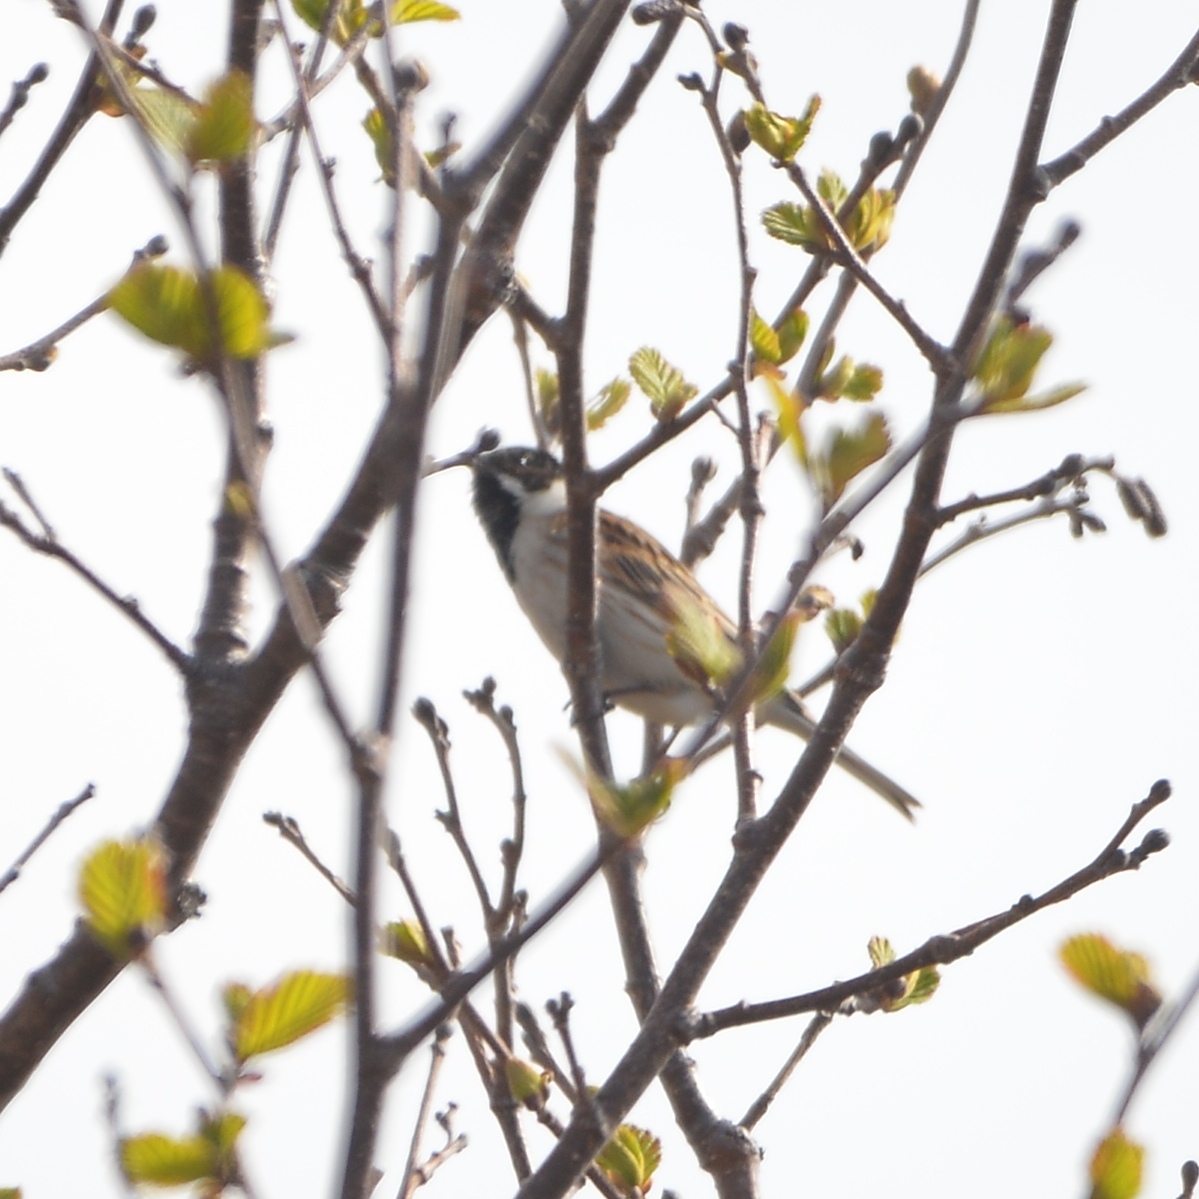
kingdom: Animalia
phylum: Chordata
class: Aves
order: Passeriformes
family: Emberizidae
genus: Emberiza
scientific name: Emberiza schoeniclus
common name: Reed bunting
